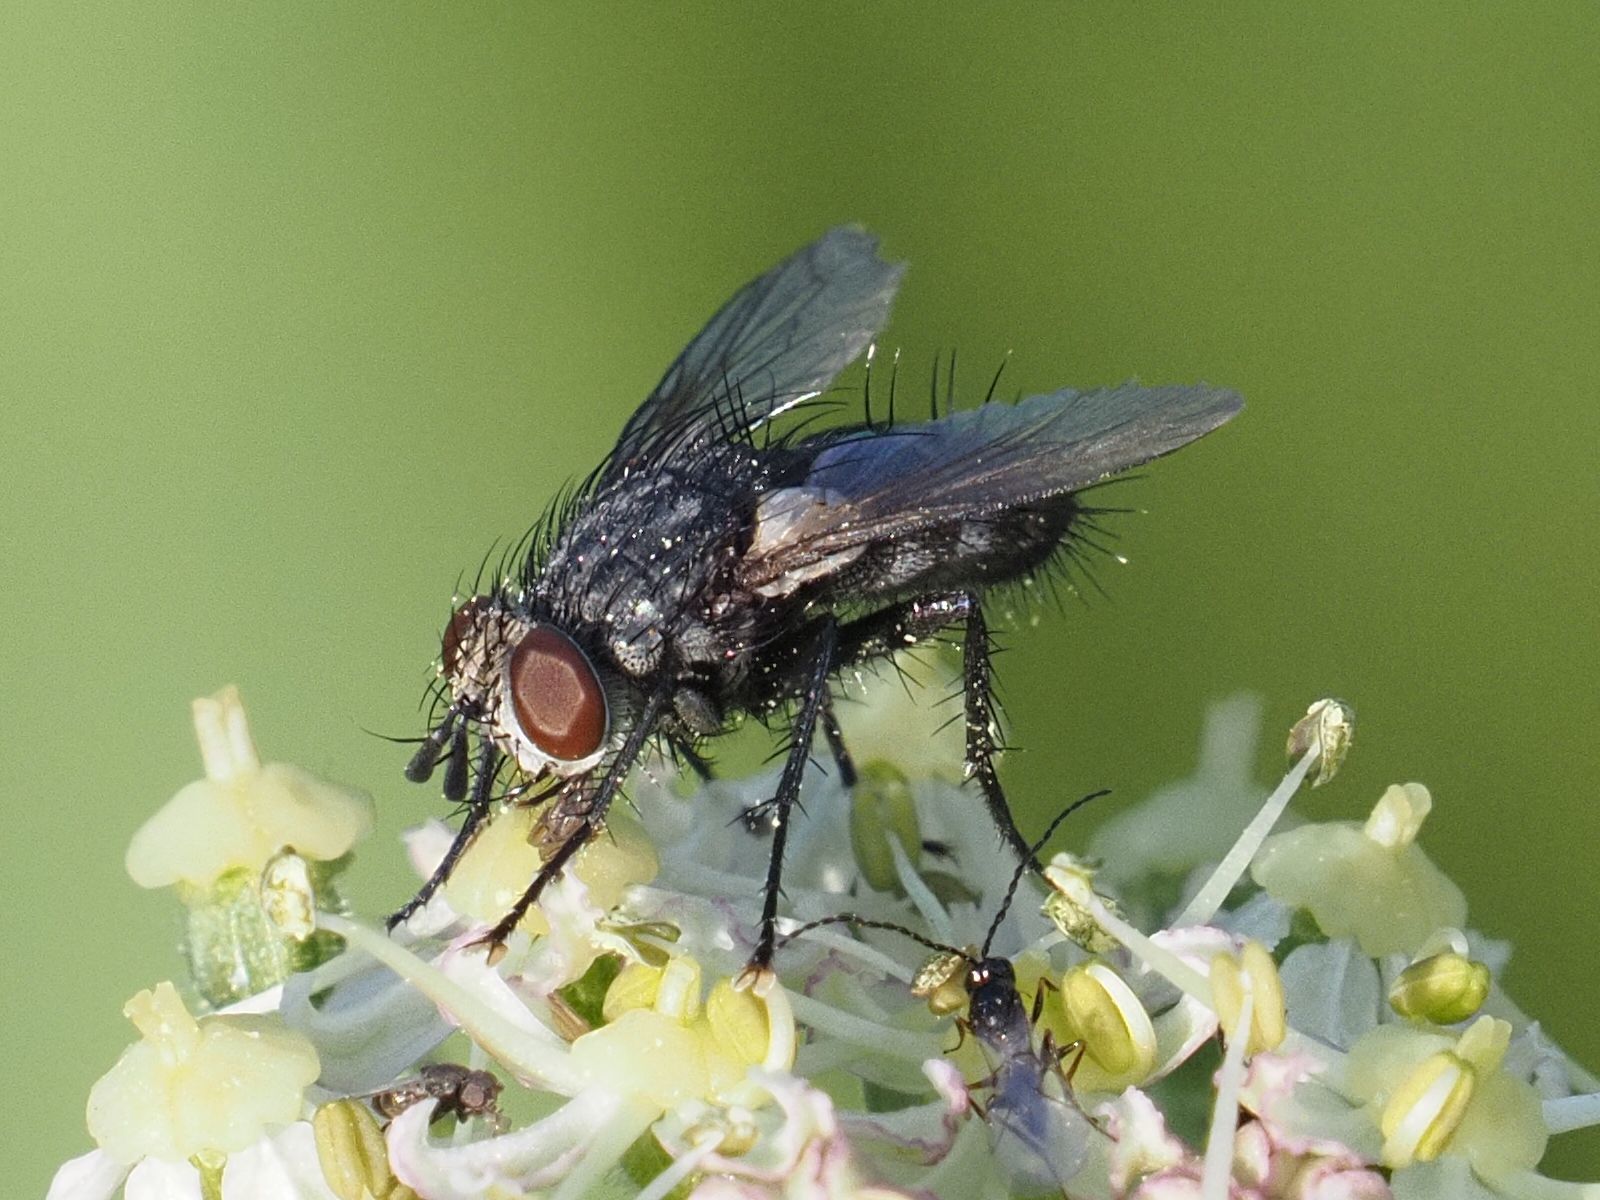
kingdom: Animalia
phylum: Arthropoda
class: Insecta
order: Diptera
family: Tachinidae
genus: Voria
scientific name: Voria ruralis
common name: Parasitic fly
